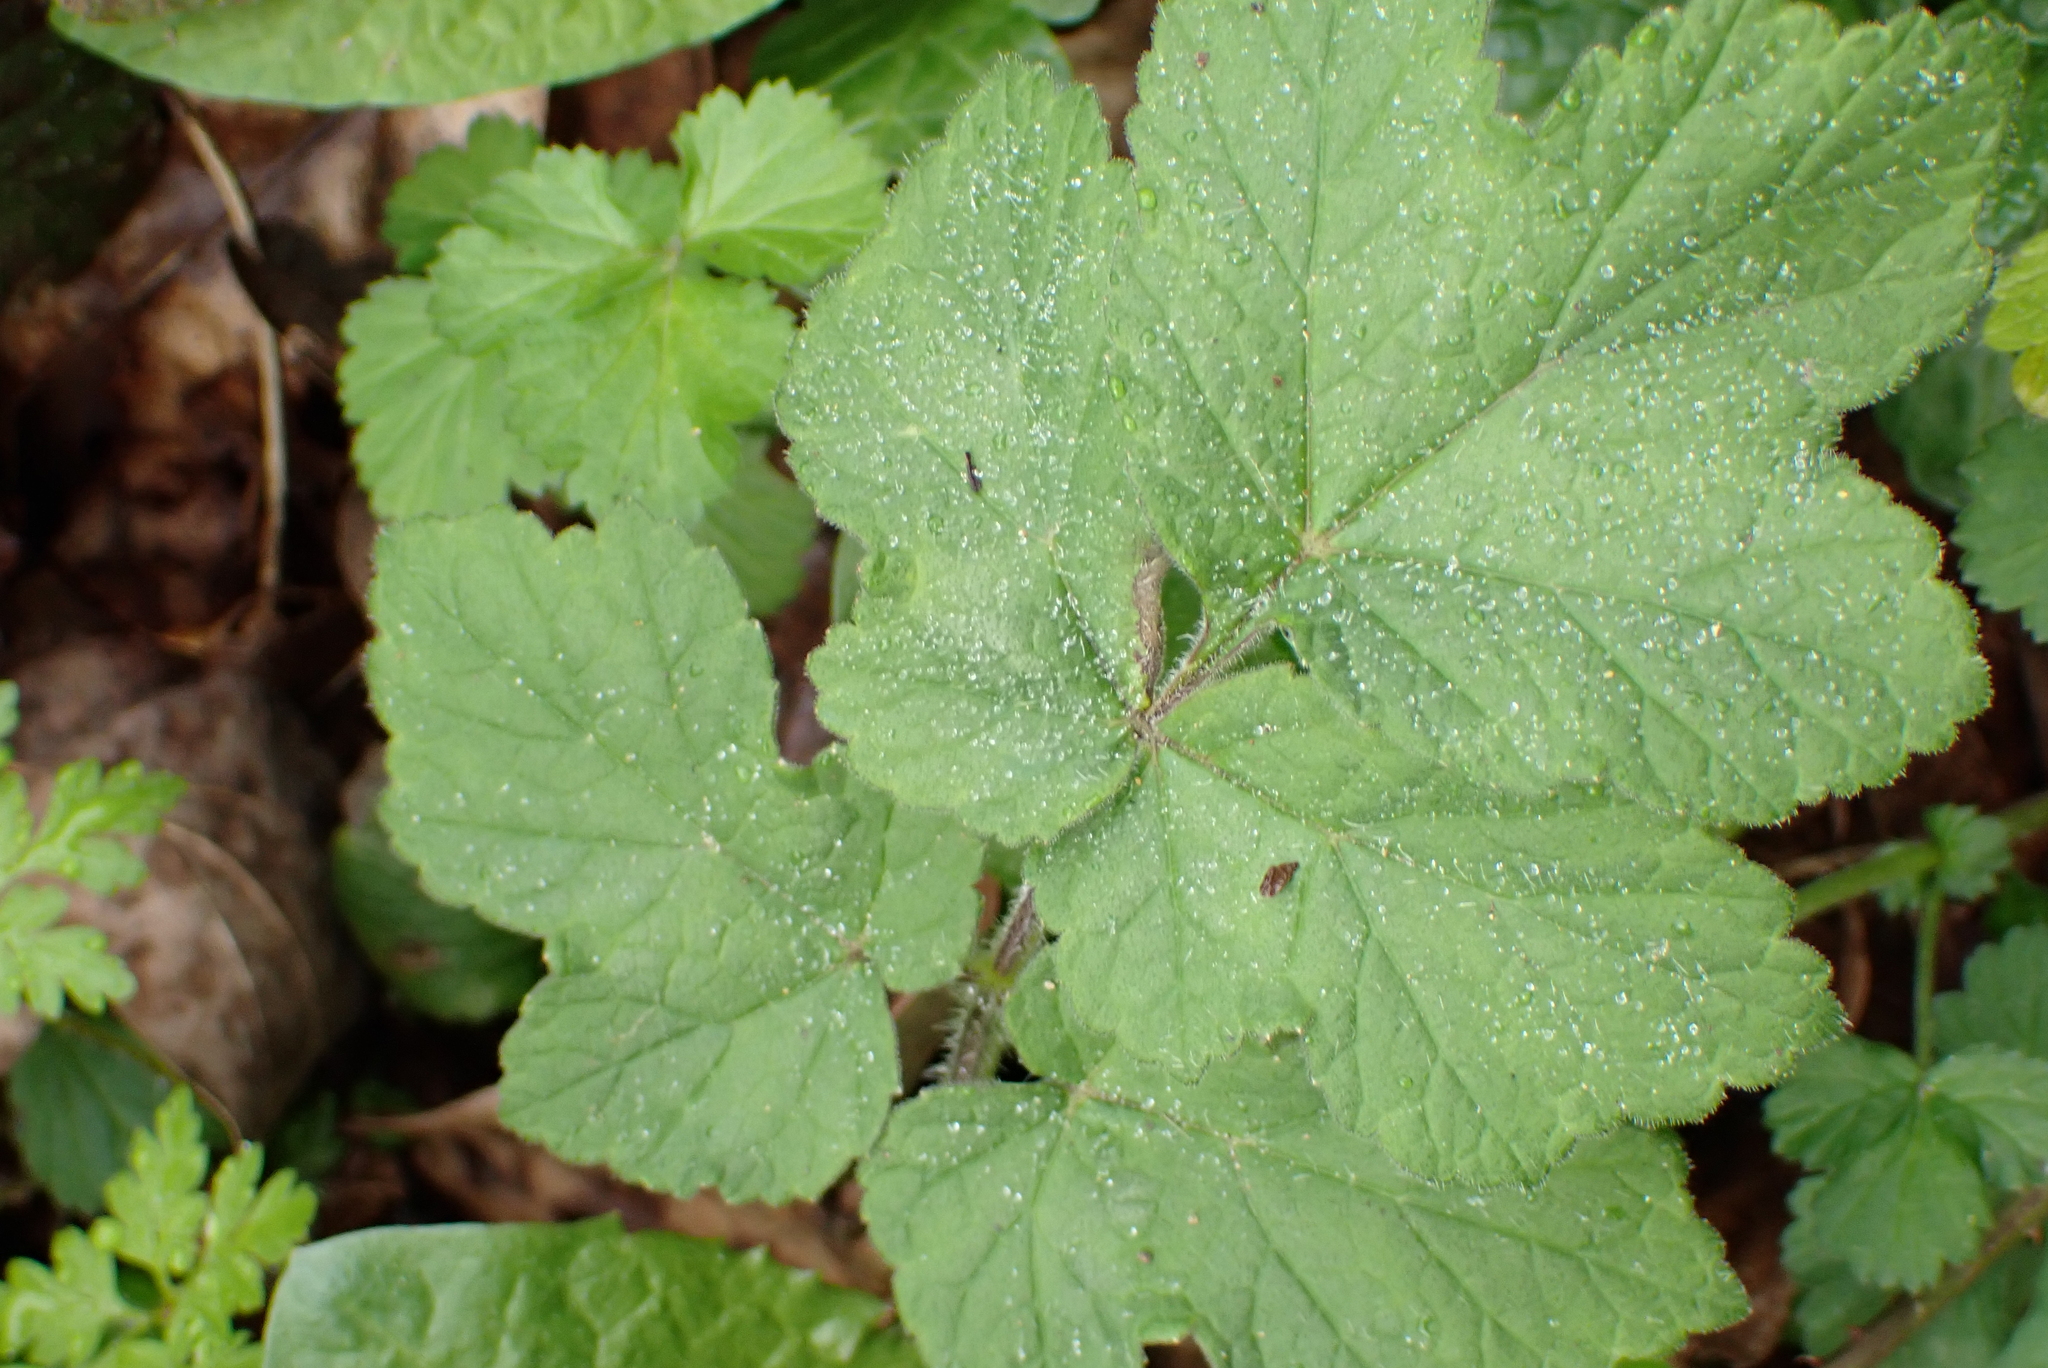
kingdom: Plantae
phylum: Tracheophyta
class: Magnoliopsida
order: Apiales
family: Apiaceae
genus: Heracleum
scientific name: Heracleum sphondylium
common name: Hogweed
